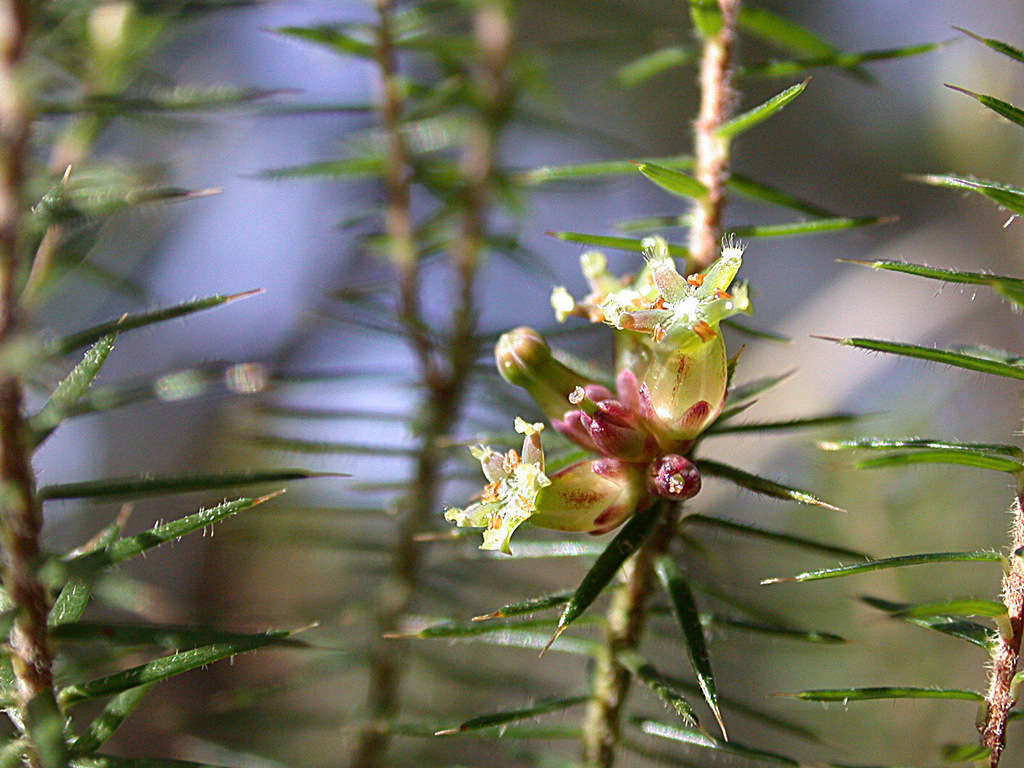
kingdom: Plantae
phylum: Tracheophyta
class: Magnoliopsida
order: Ericales
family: Ericaceae
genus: Acrotriche
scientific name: Acrotriche serrulata
